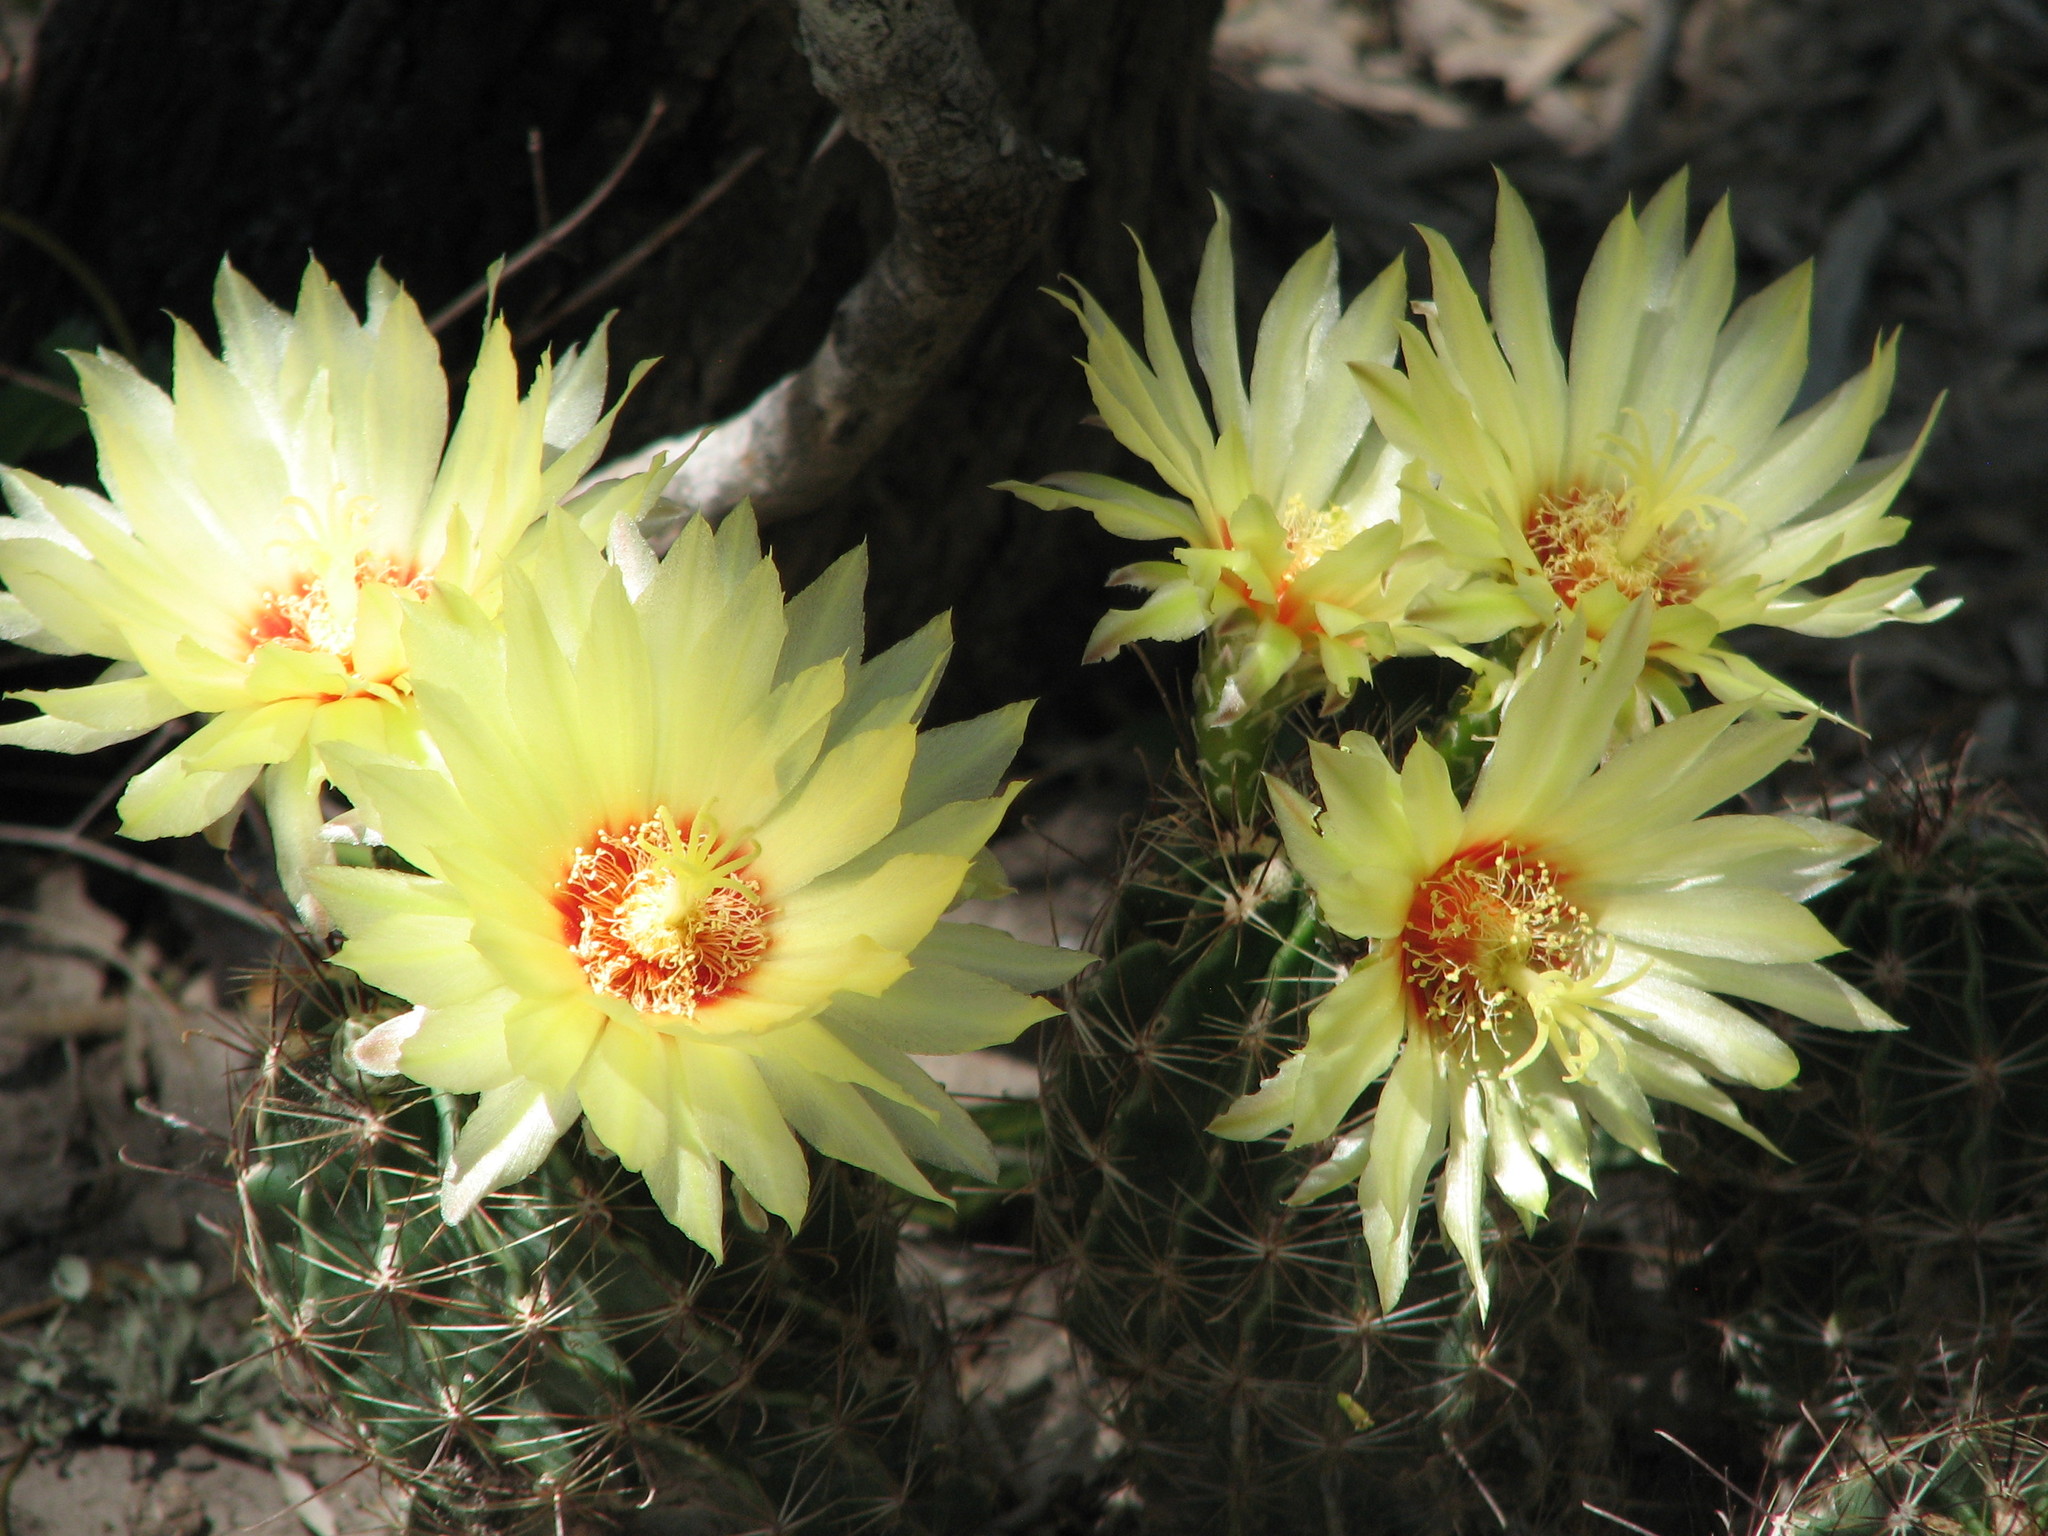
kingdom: Plantae
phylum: Tracheophyta
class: Magnoliopsida
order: Caryophyllales
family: Cactaceae
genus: Thelocactus
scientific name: Thelocactus setispinus
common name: Miniature barrel cactus
